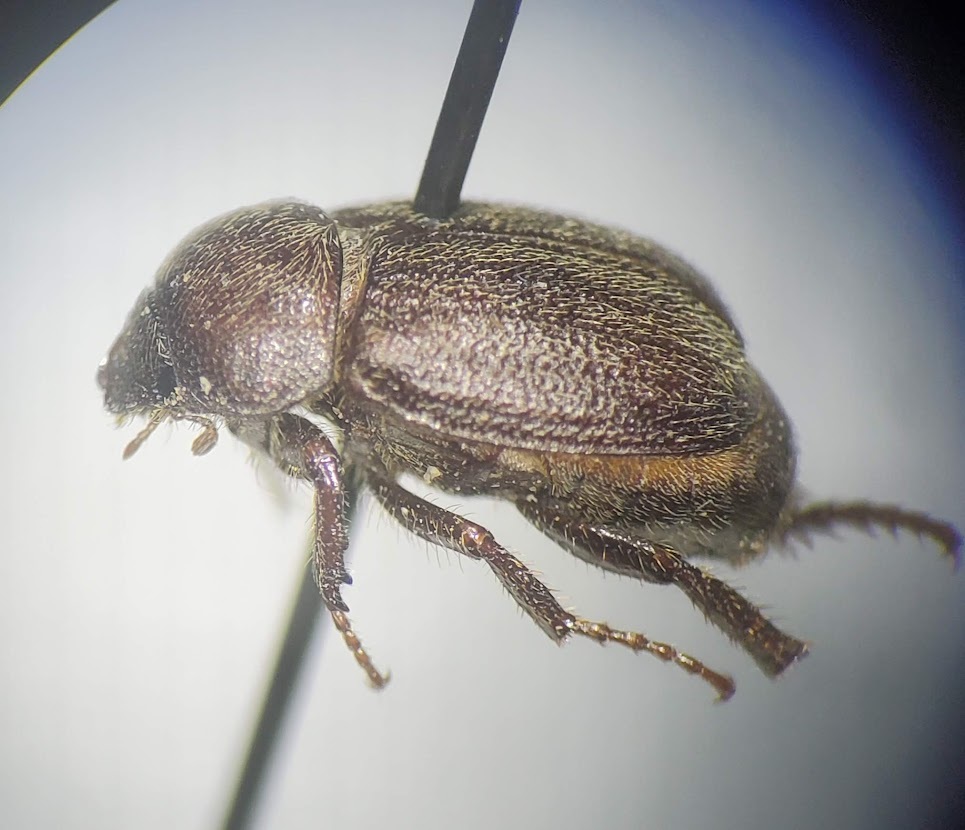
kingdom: Animalia
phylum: Arthropoda
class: Insecta
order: Coleoptera
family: Scarabaeidae
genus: Diplotaxis
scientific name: Diplotaxis rudis
